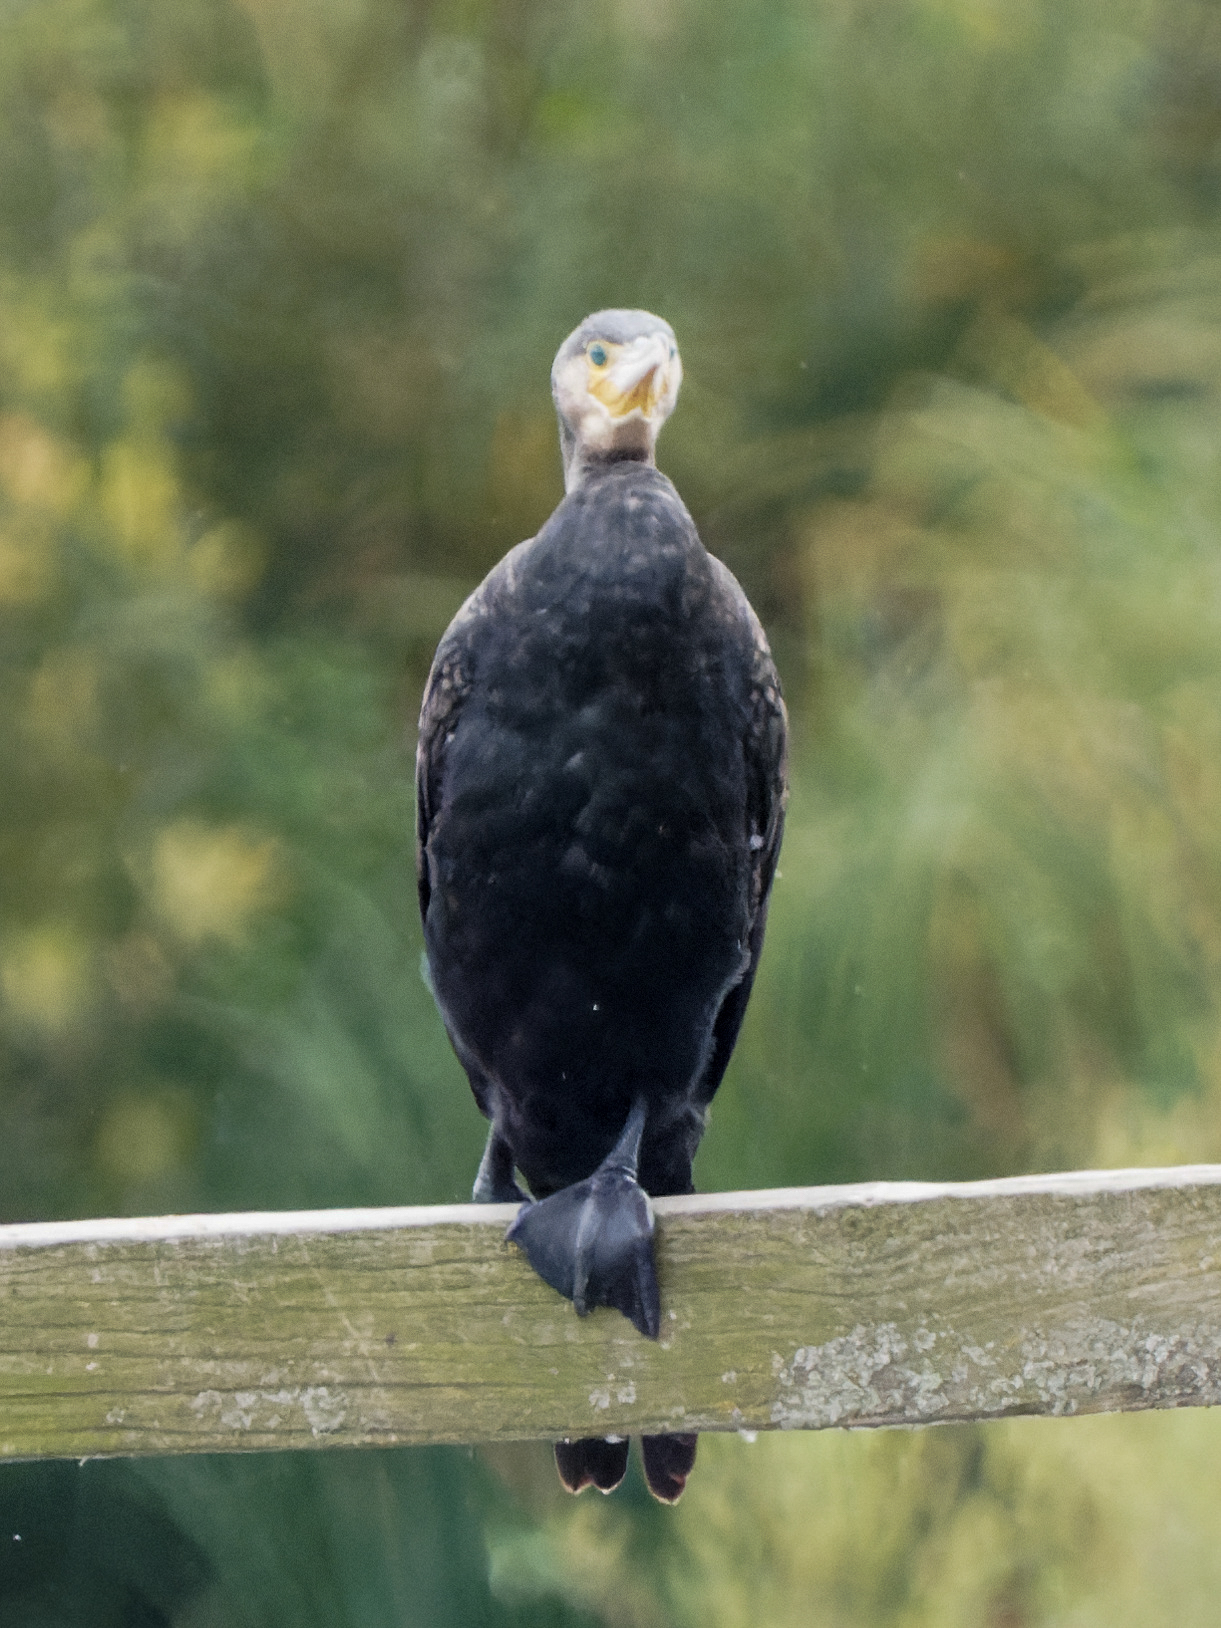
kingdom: Animalia
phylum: Chordata
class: Aves
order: Suliformes
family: Phalacrocoracidae
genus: Phalacrocorax
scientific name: Phalacrocorax carbo
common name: Great cormorant
